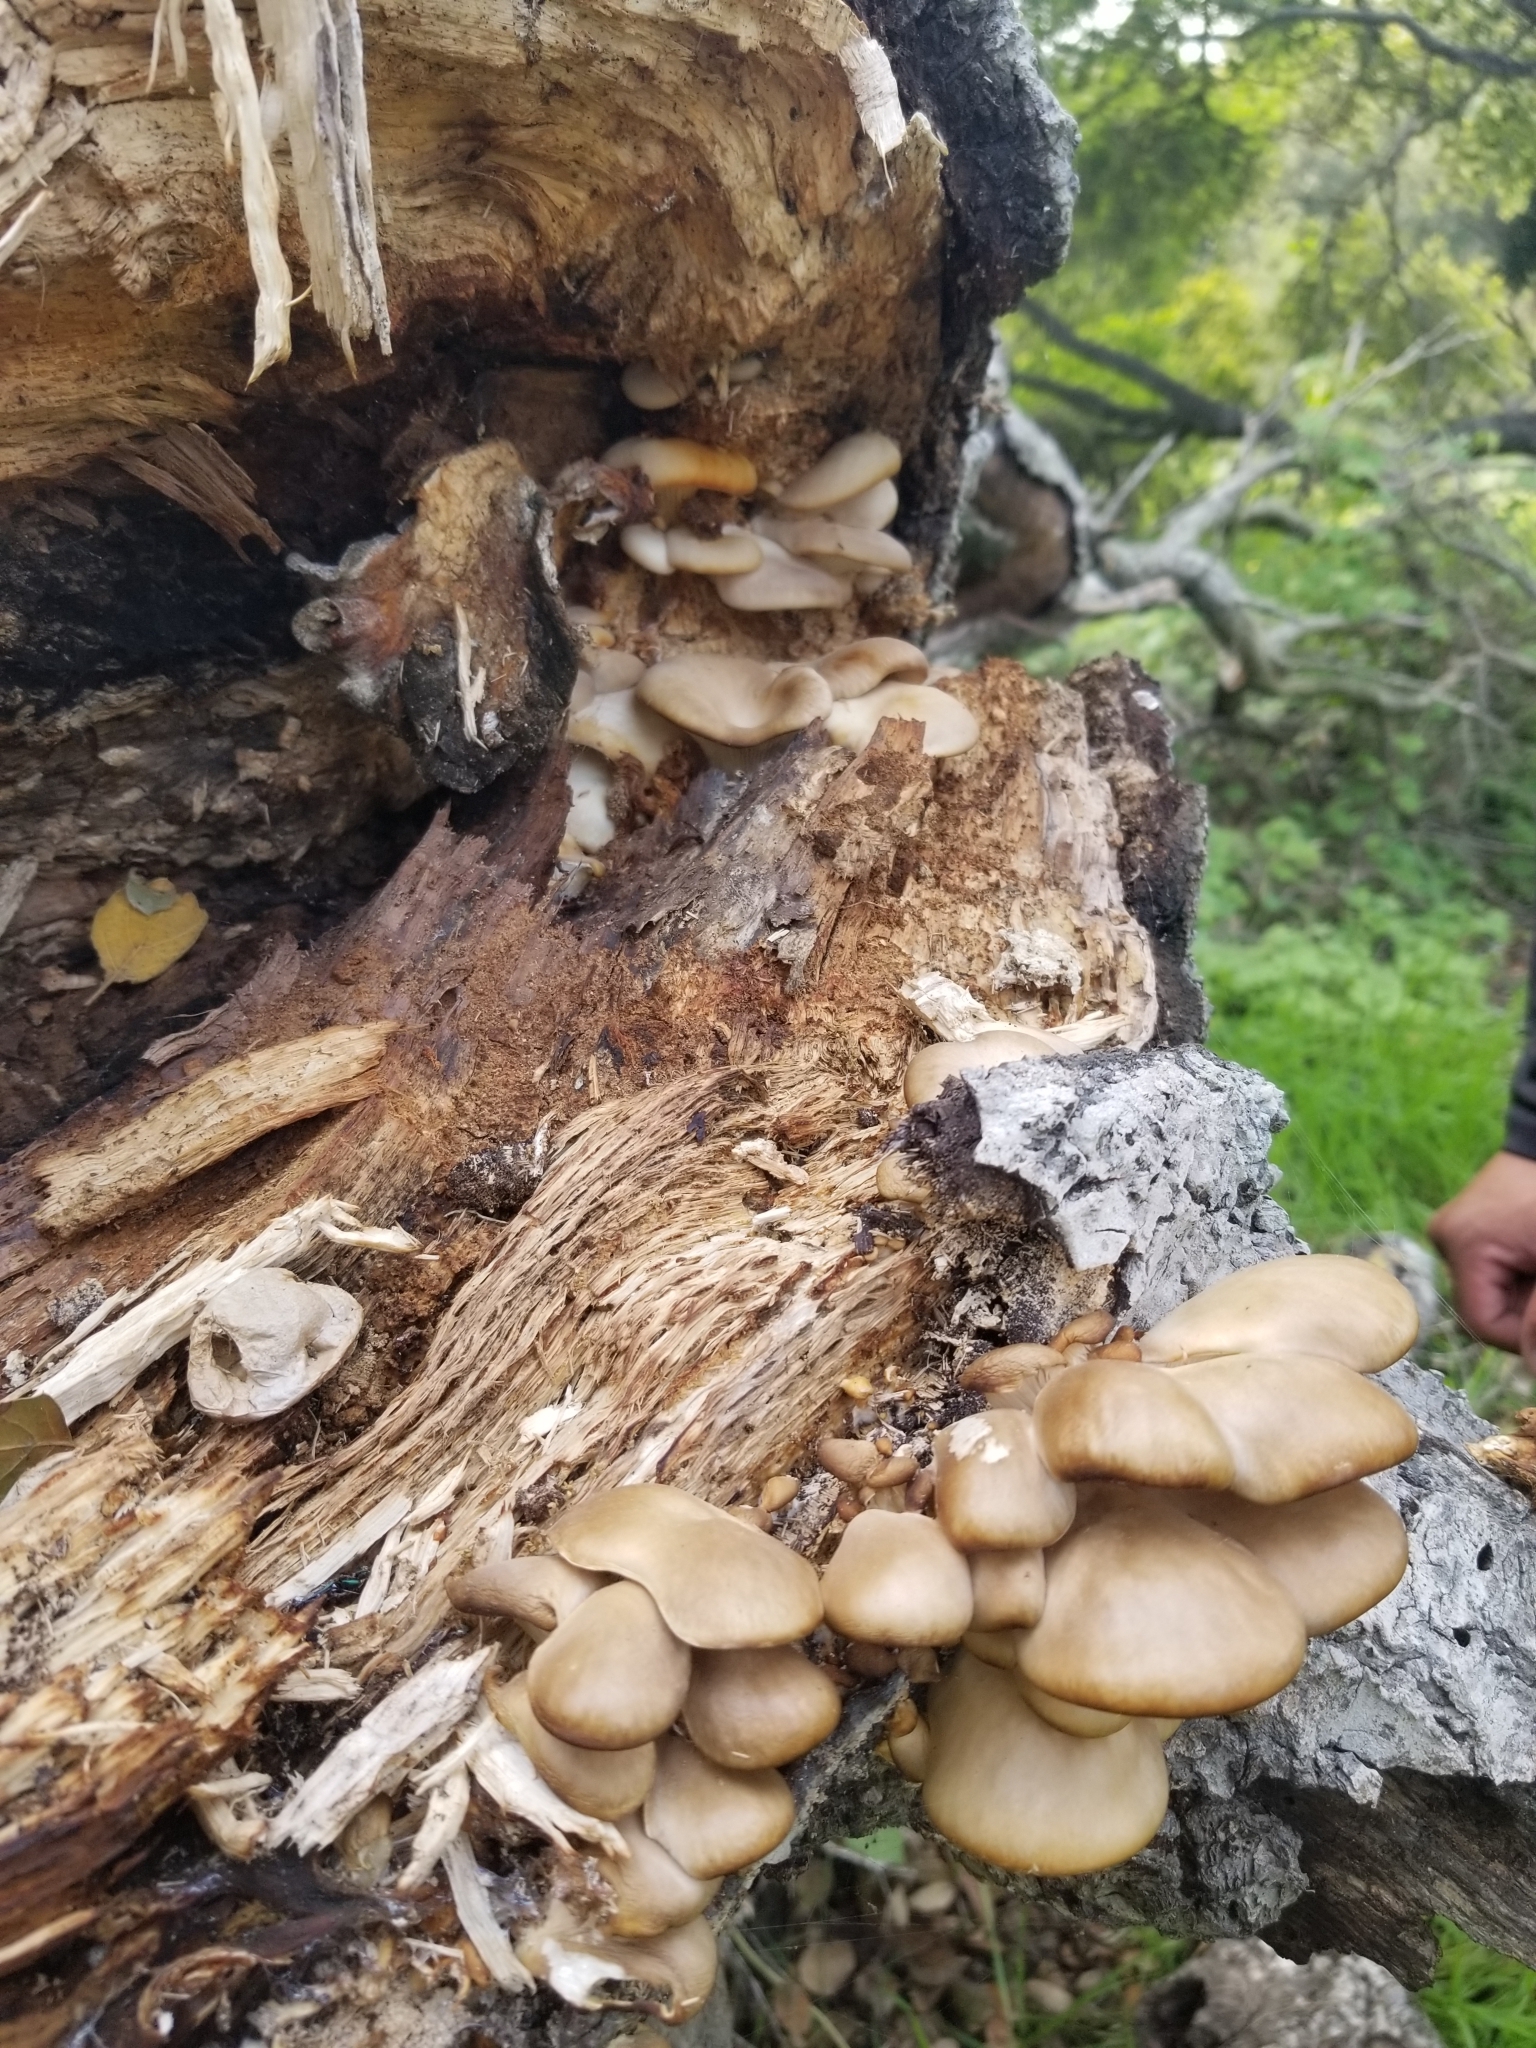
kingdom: Fungi
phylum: Basidiomycota
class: Agaricomycetes
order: Agaricales
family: Pleurotaceae
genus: Pleurotus
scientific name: Pleurotus ostreatus
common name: Oyster mushroom
